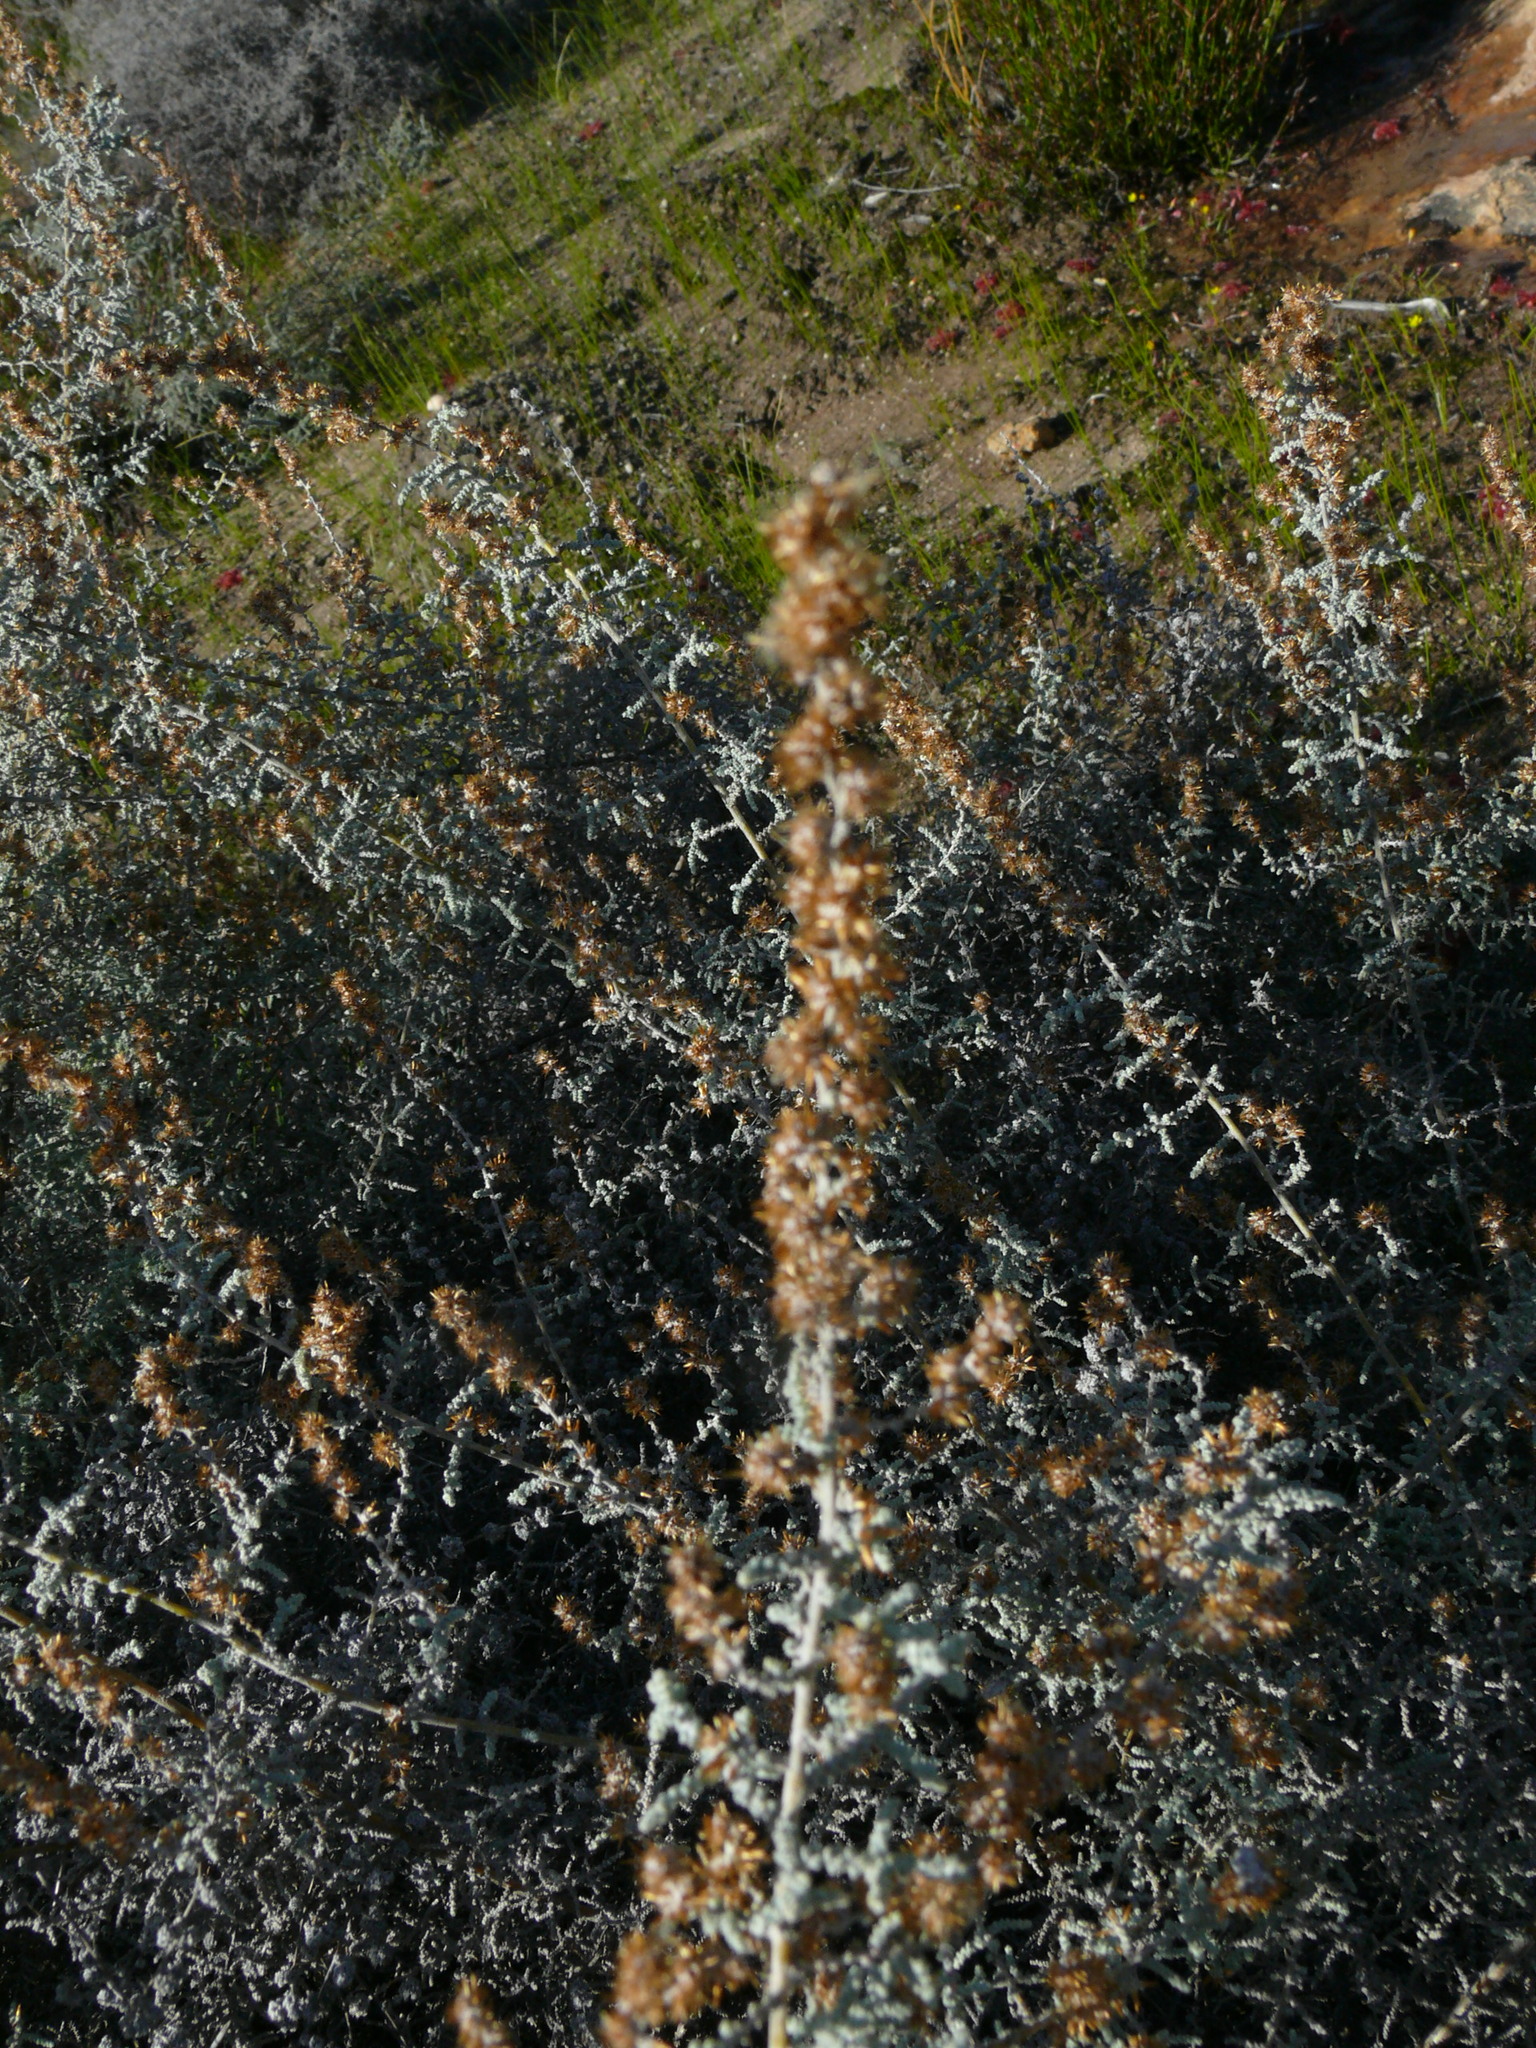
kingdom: Plantae
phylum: Tracheophyta
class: Magnoliopsida
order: Asterales
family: Asteraceae
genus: Seriphium
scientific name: Seriphium plumosum
